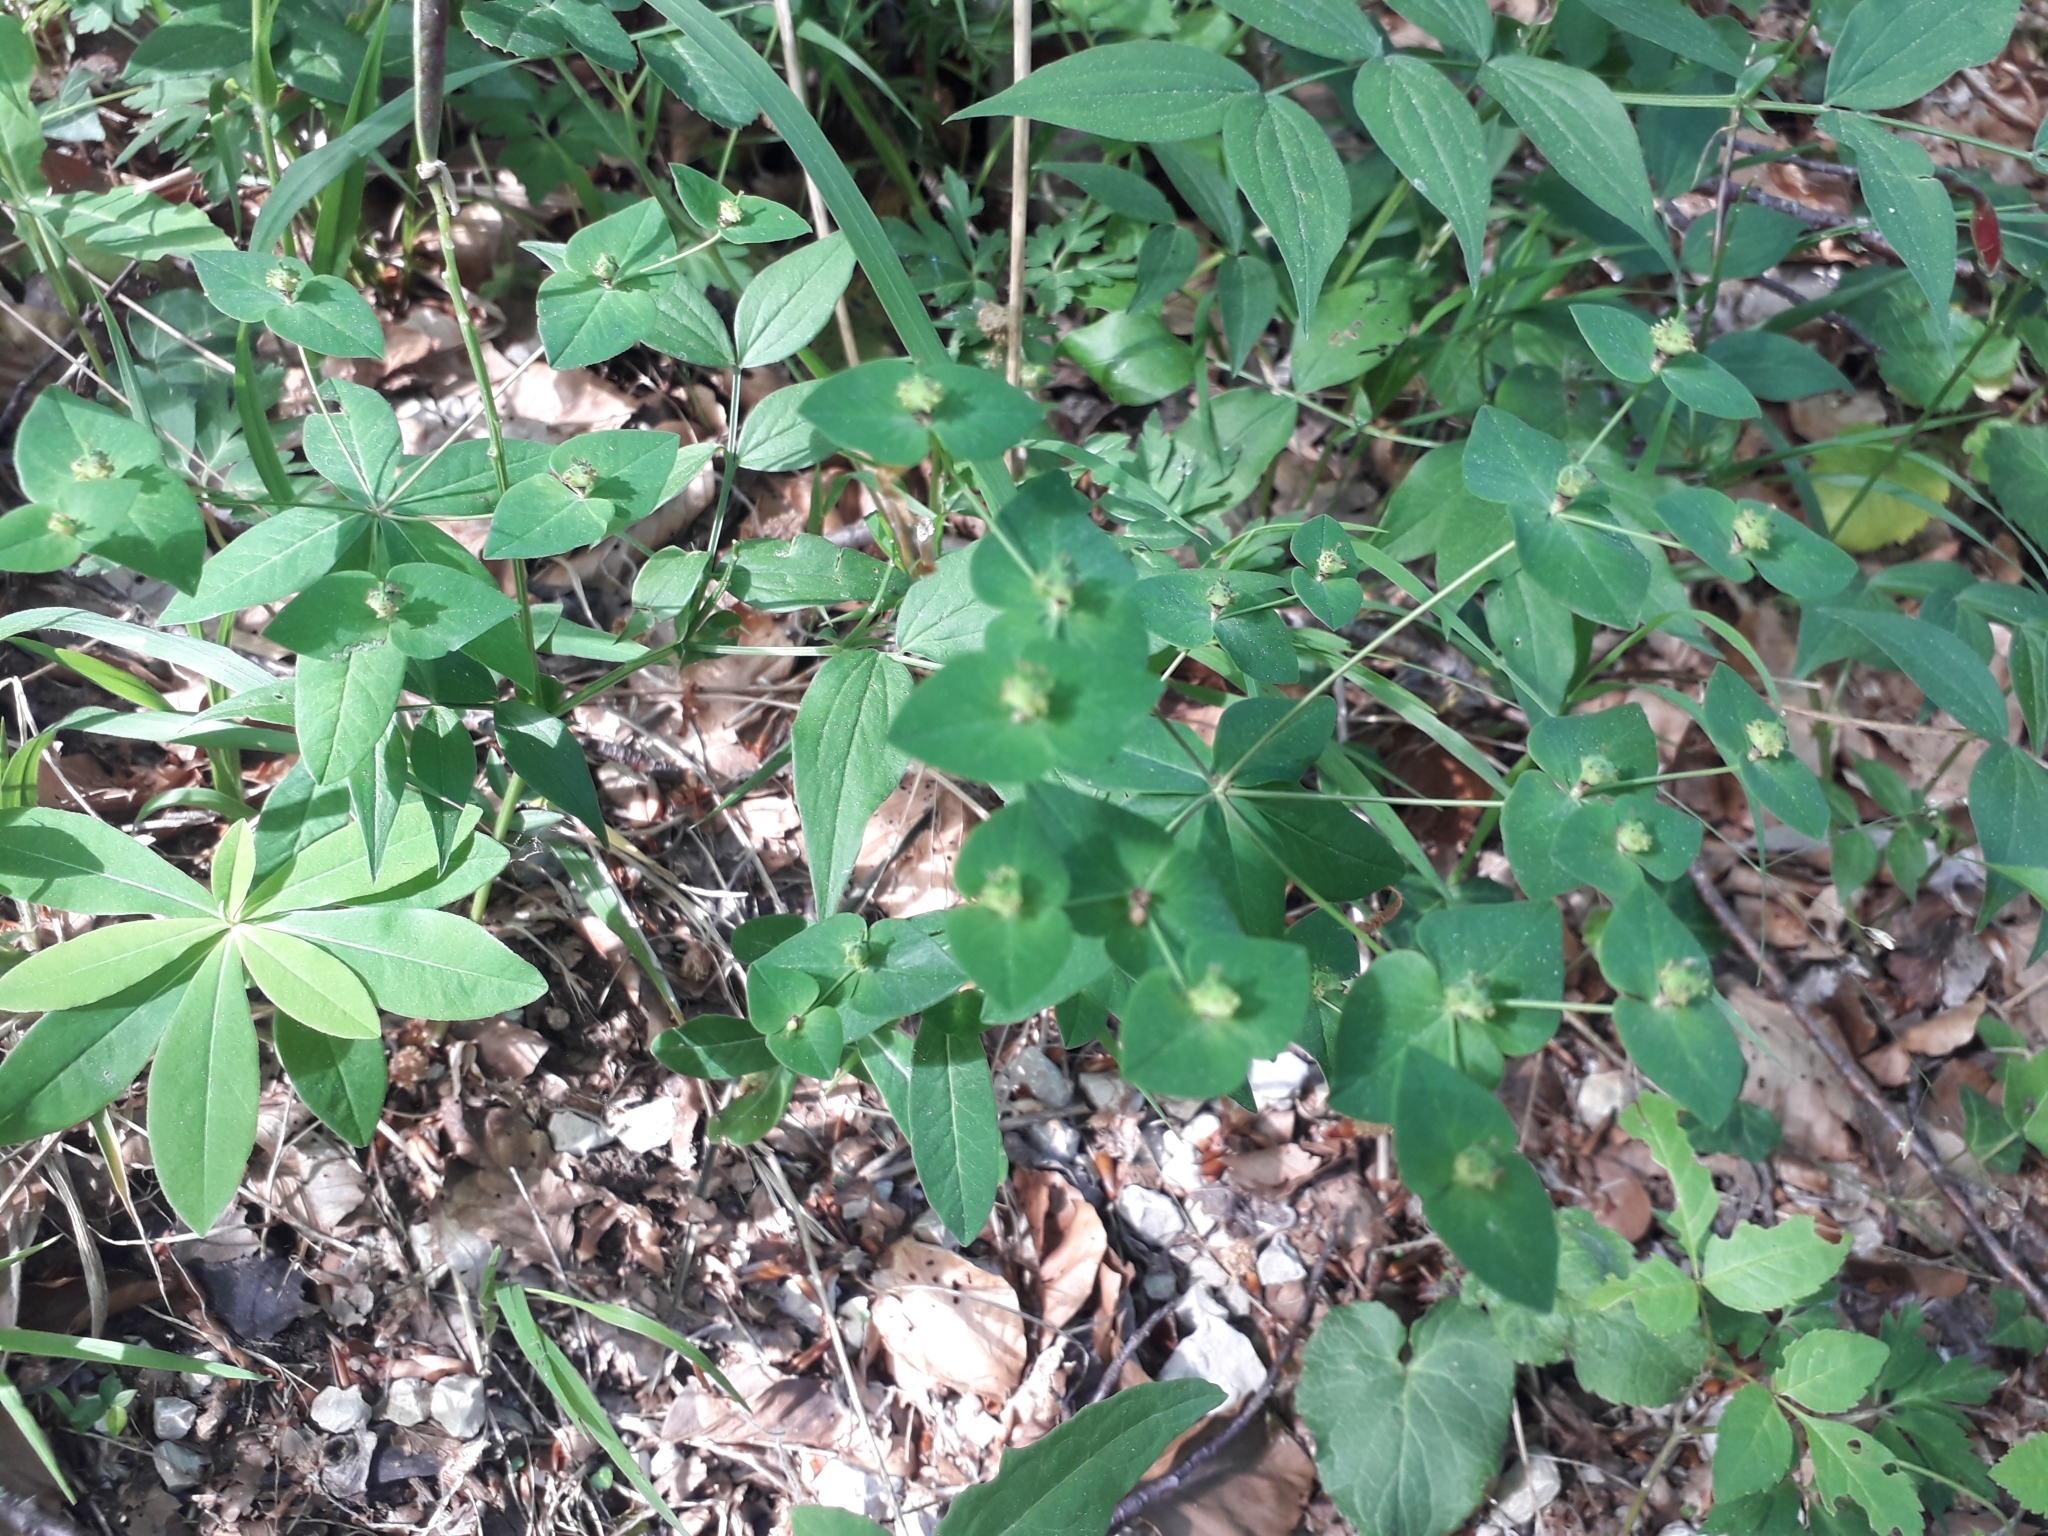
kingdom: Plantae
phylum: Tracheophyta
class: Magnoliopsida
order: Malpighiales
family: Euphorbiaceae
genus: Euphorbia
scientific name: Euphorbia dulcis
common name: Sweet spurge
